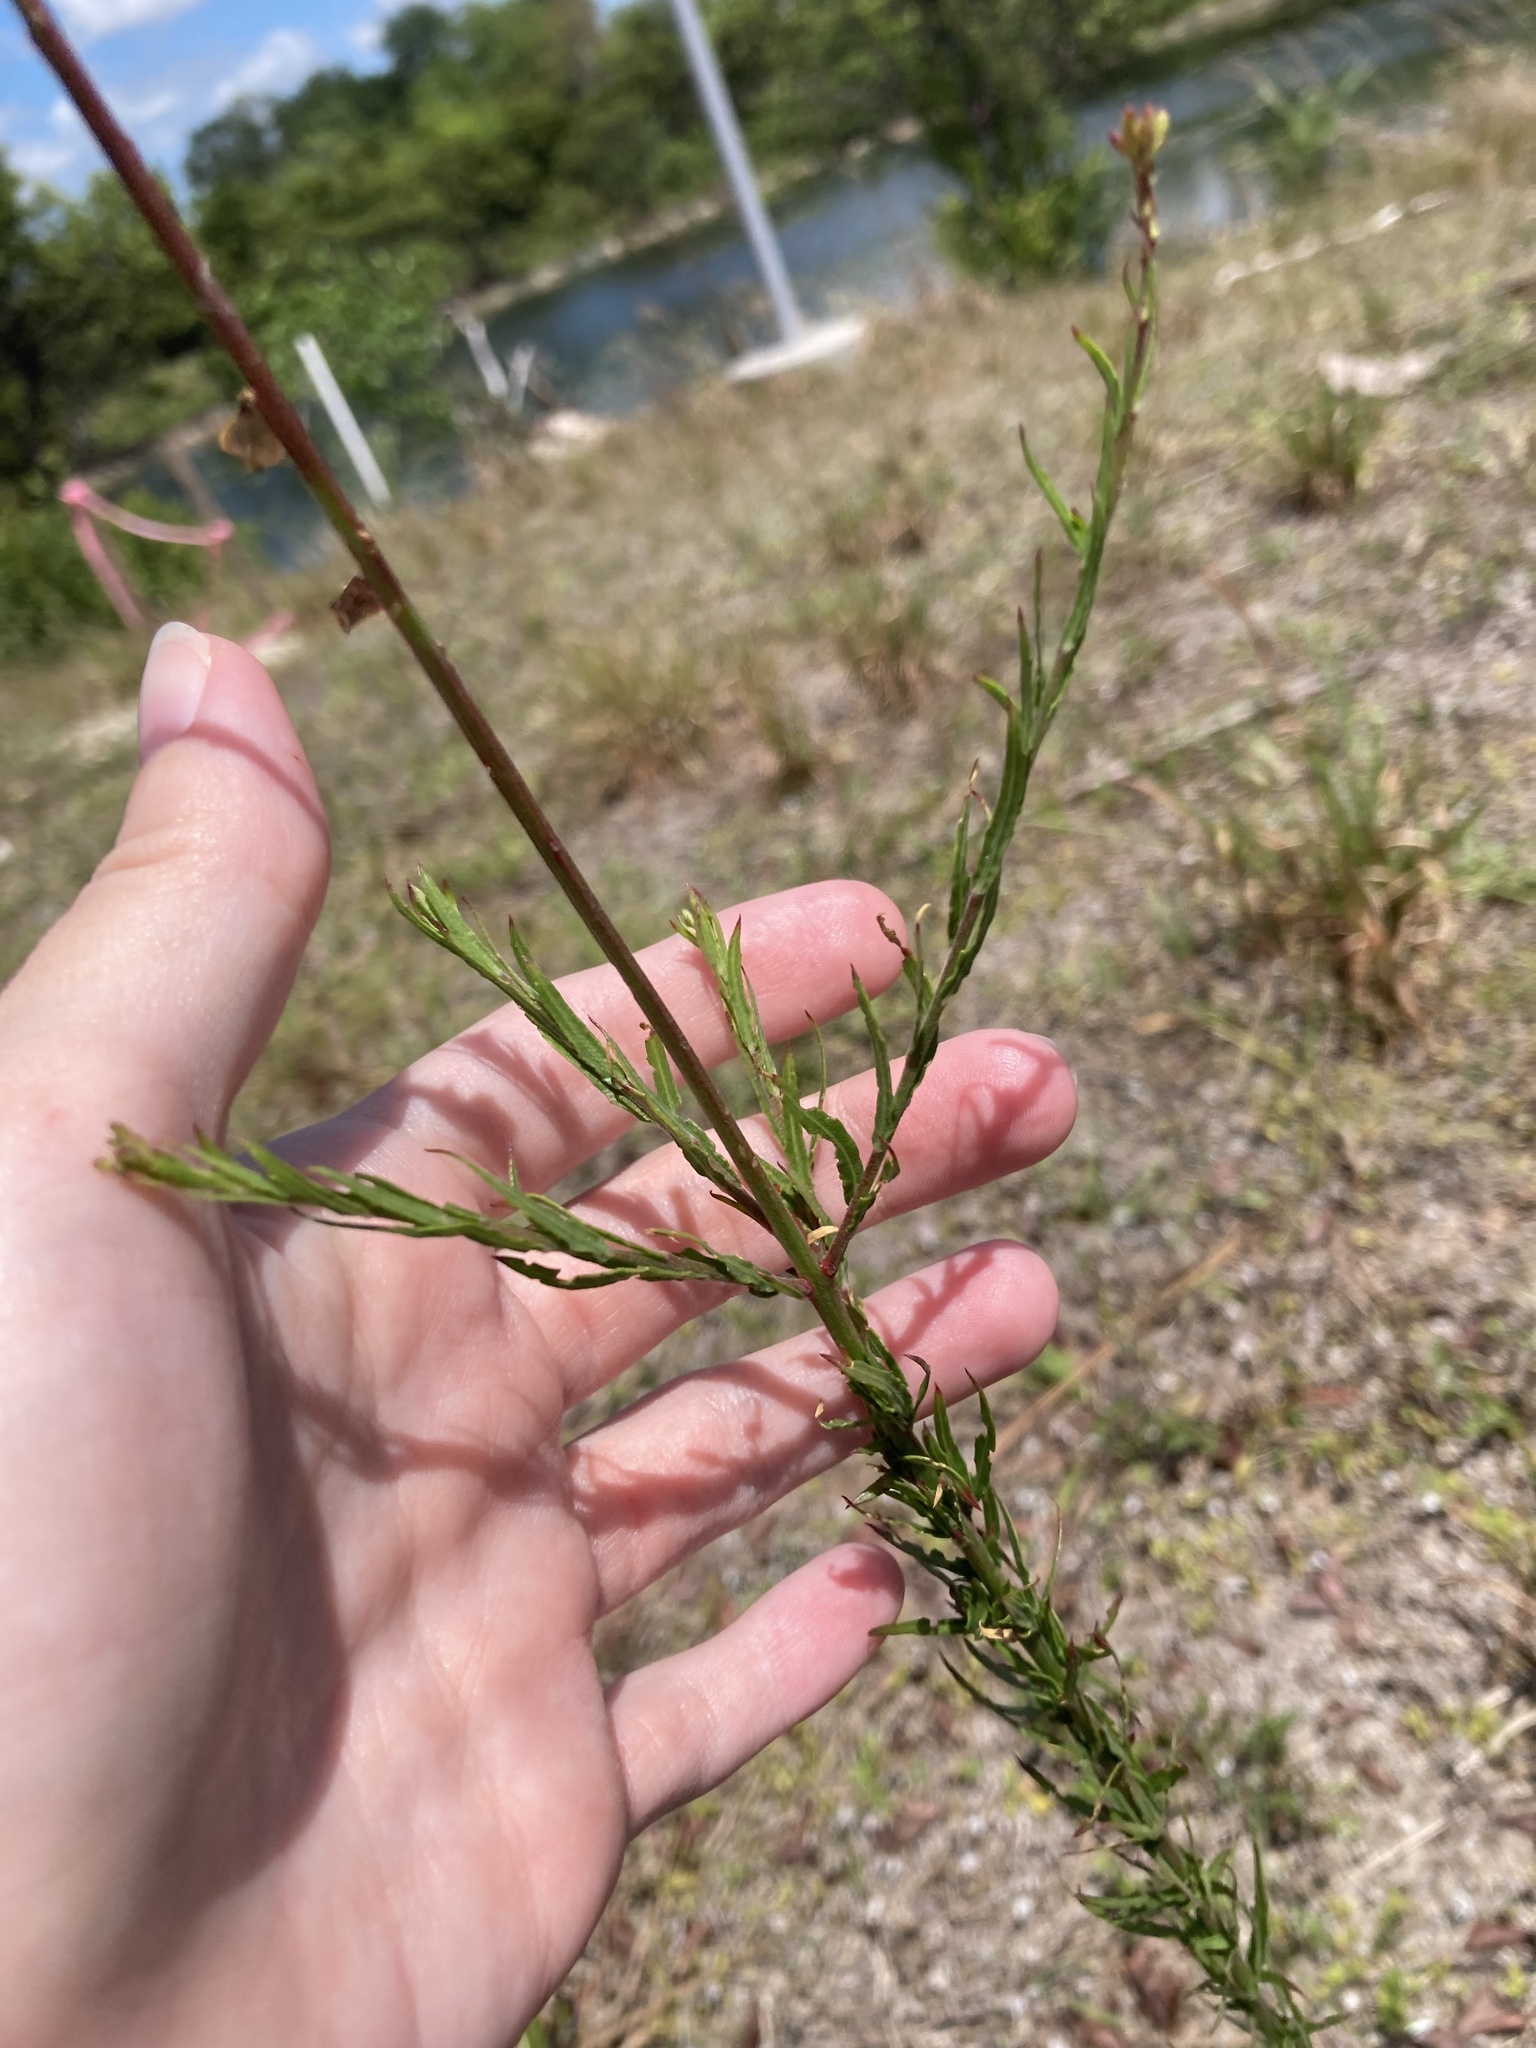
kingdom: Plantae
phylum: Tracheophyta
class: Magnoliopsida
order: Myrtales
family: Onagraceae
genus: Oenothera
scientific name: Oenothera simulans
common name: Southern beeblossom
